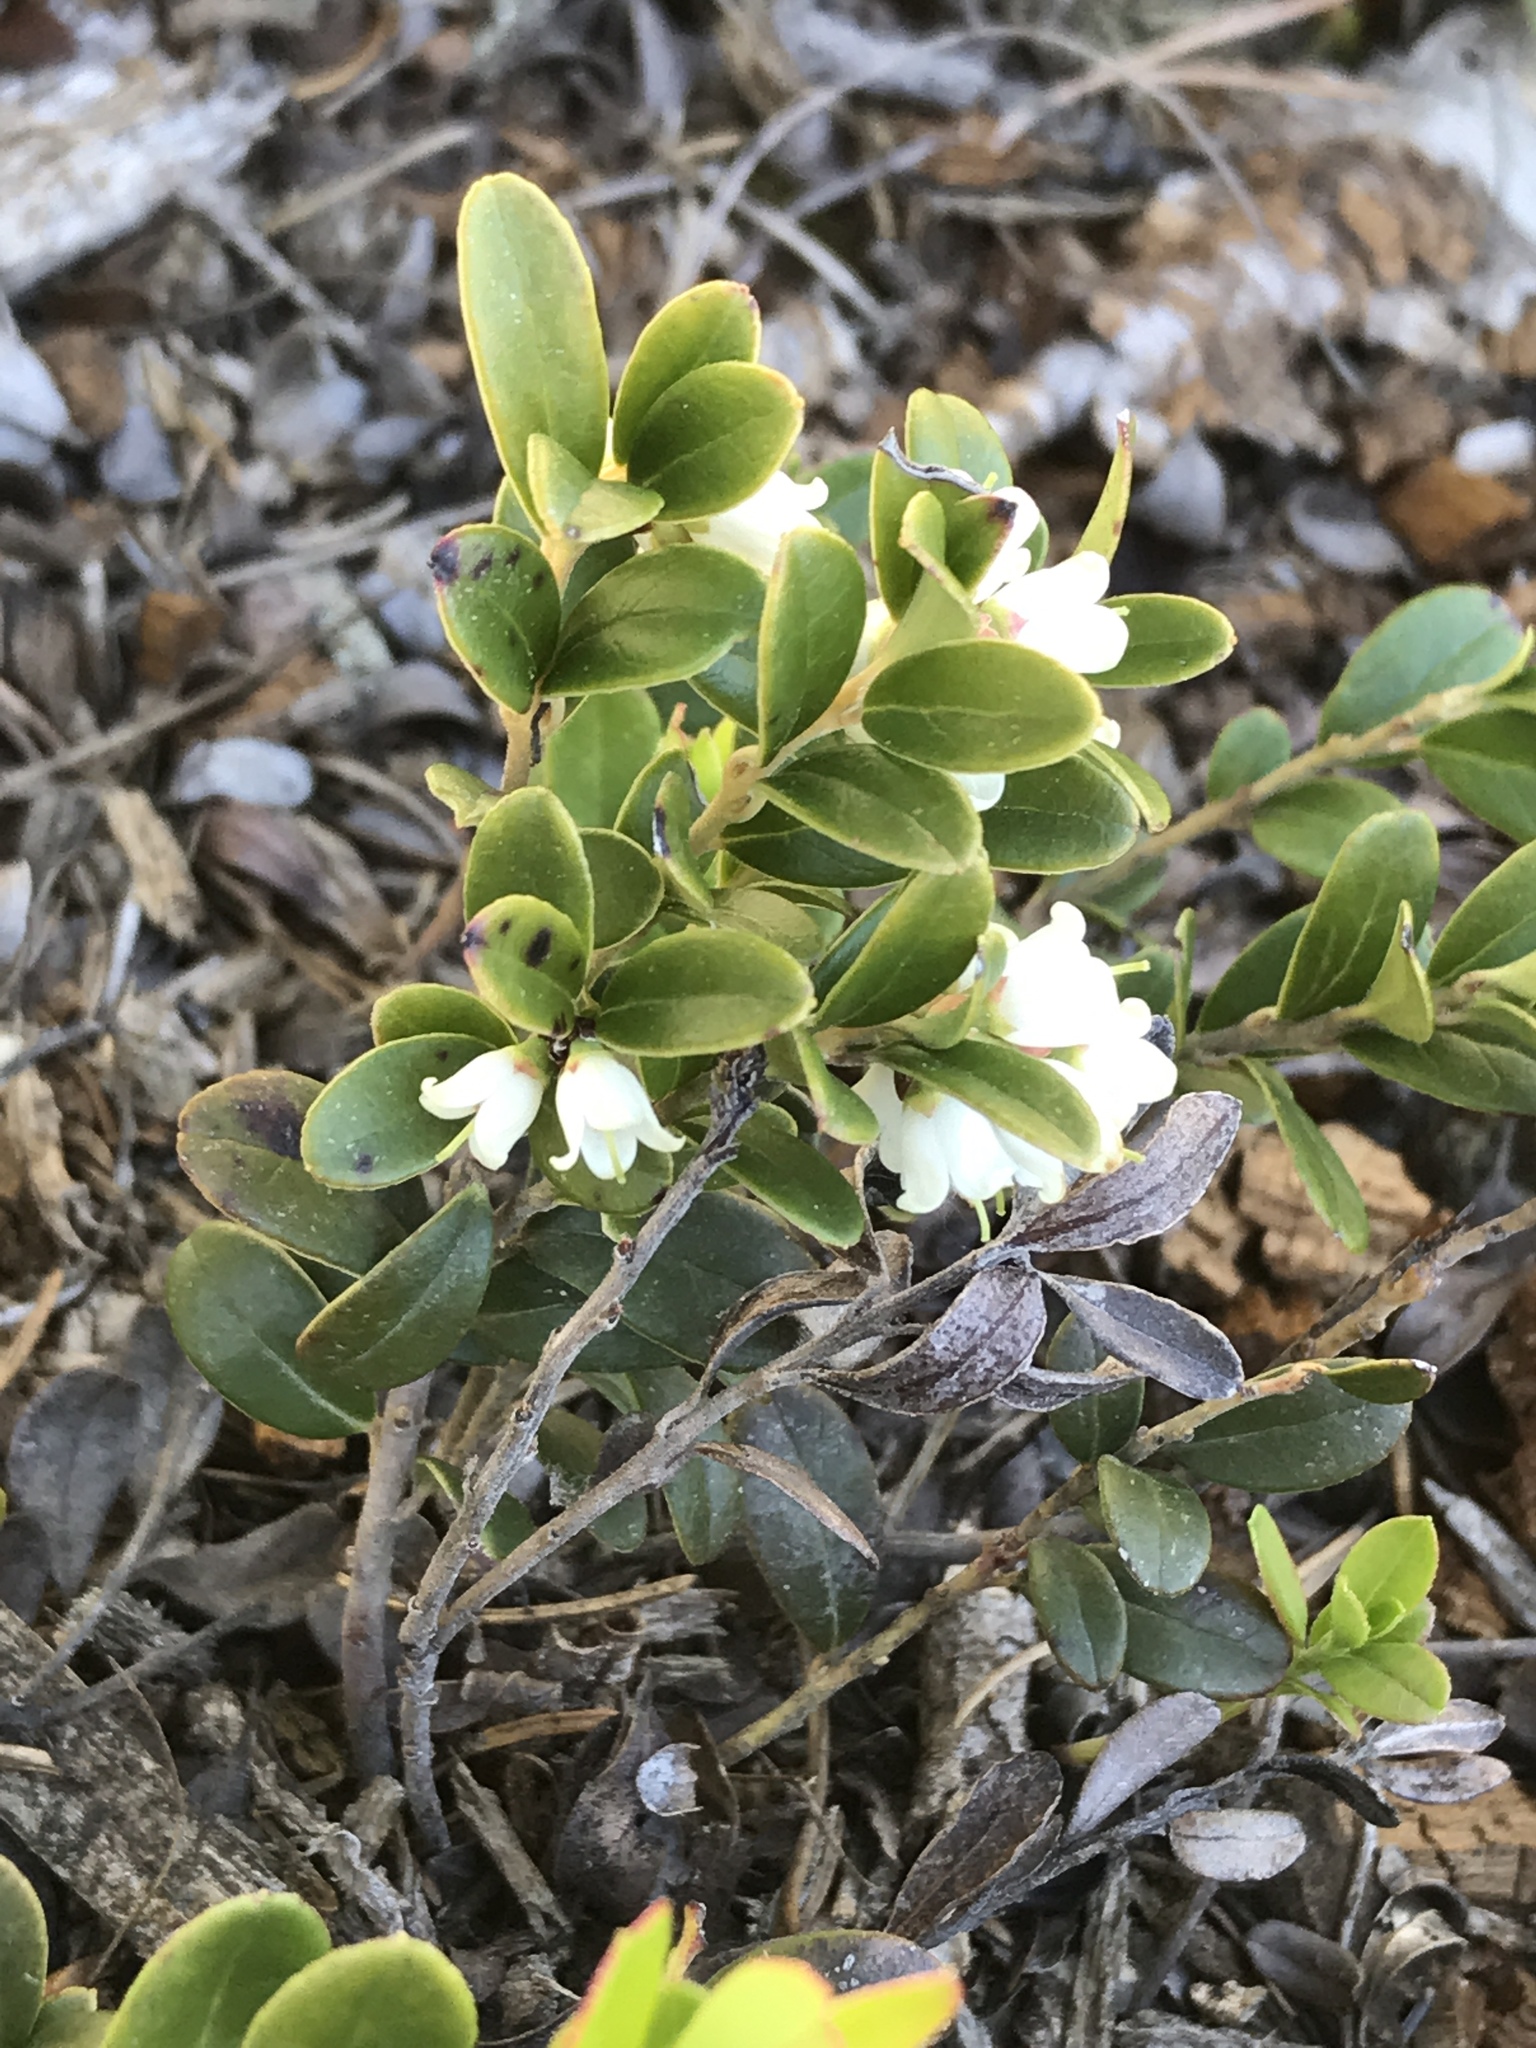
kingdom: Plantae
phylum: Tracheophyta
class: Magnoliopsida
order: Ericales
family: Ericaceae
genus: Vaccinium
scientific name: Vaccinium vitis-idaea
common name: Cowberry
